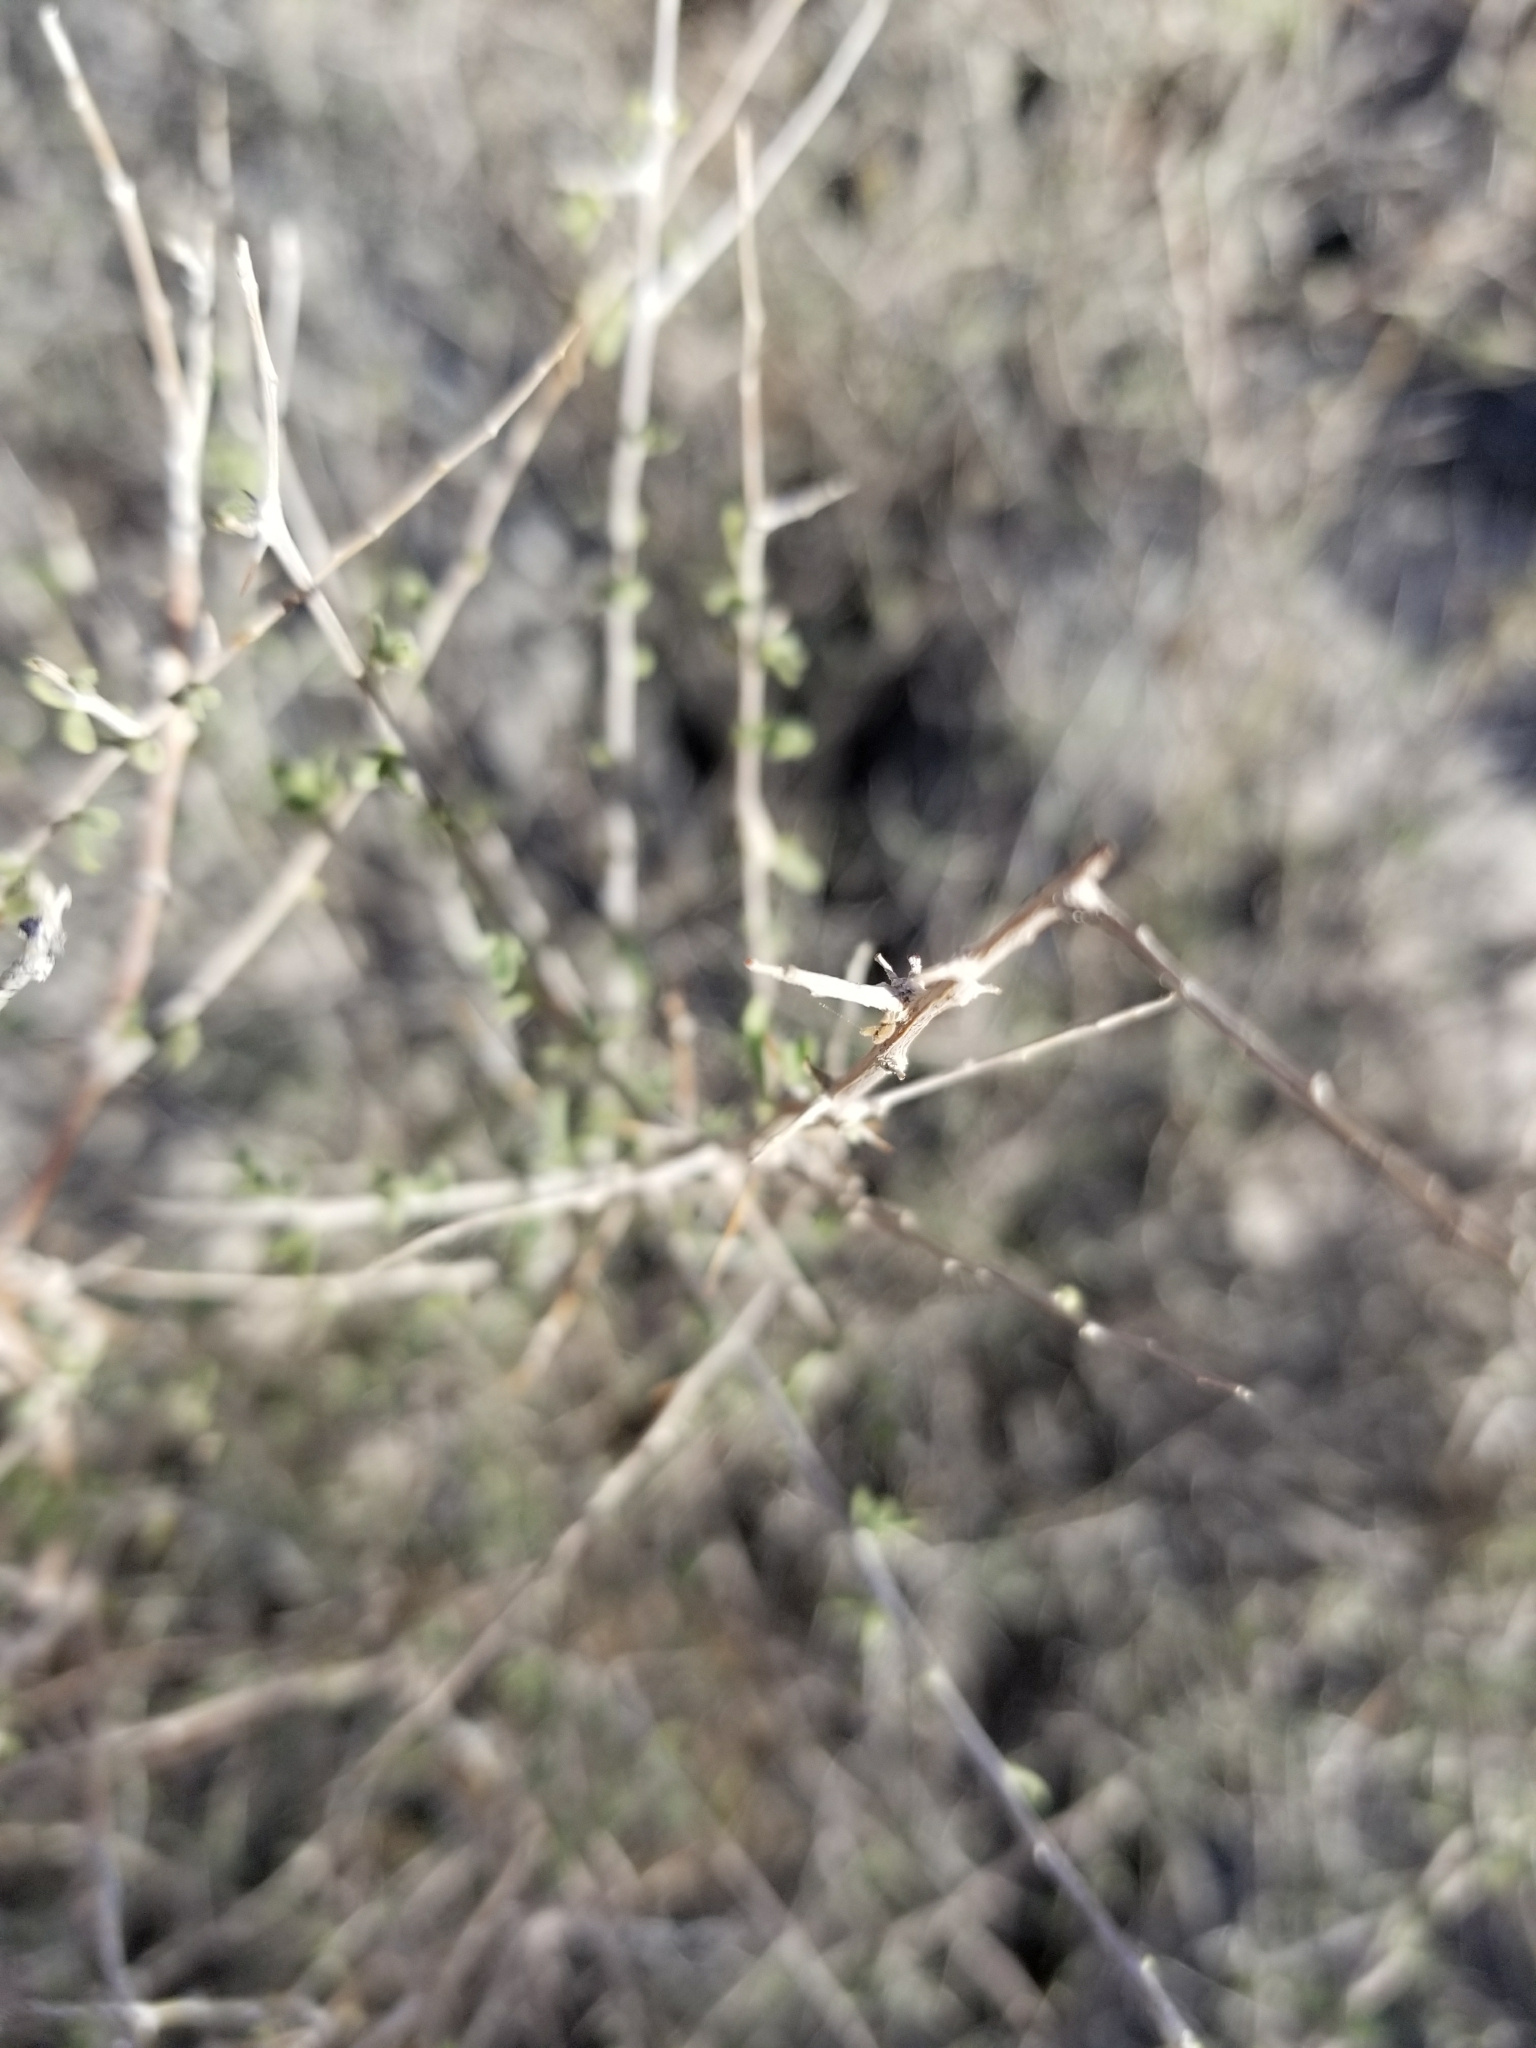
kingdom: Plantae
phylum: Tracheophyta
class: Magnoliopsida
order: Solanales
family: Solanaceae
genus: Lycium
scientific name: Lycium andersonii
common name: Water-jacket
